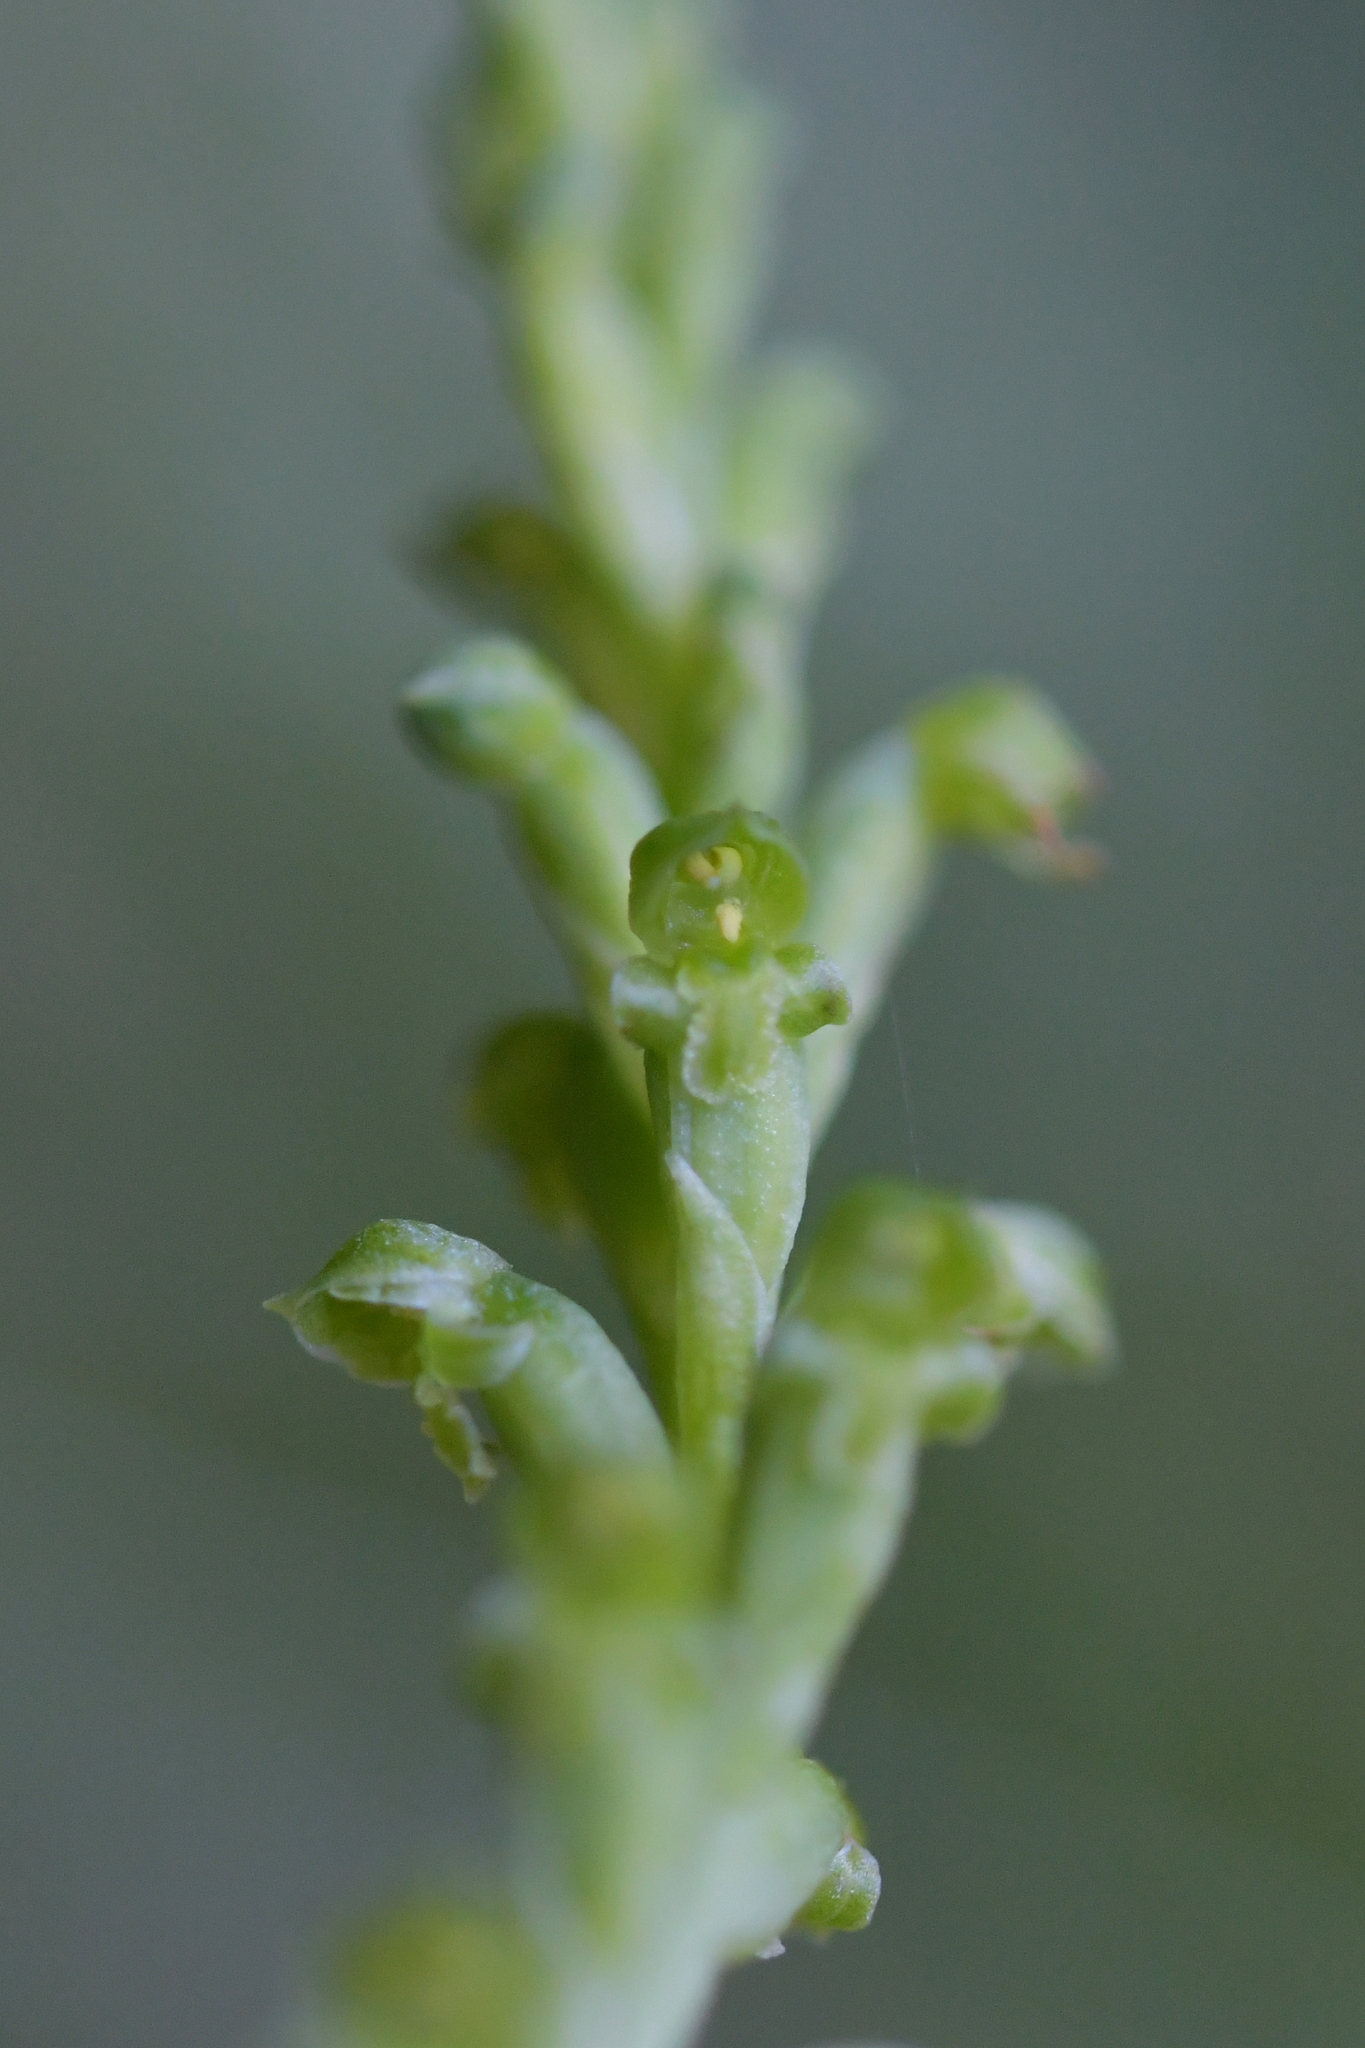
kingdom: Plantae
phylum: Tracheophyta
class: Liliopsida
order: Asparagales
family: Orchidaceae
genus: Microtis
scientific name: Microtis unifolia
